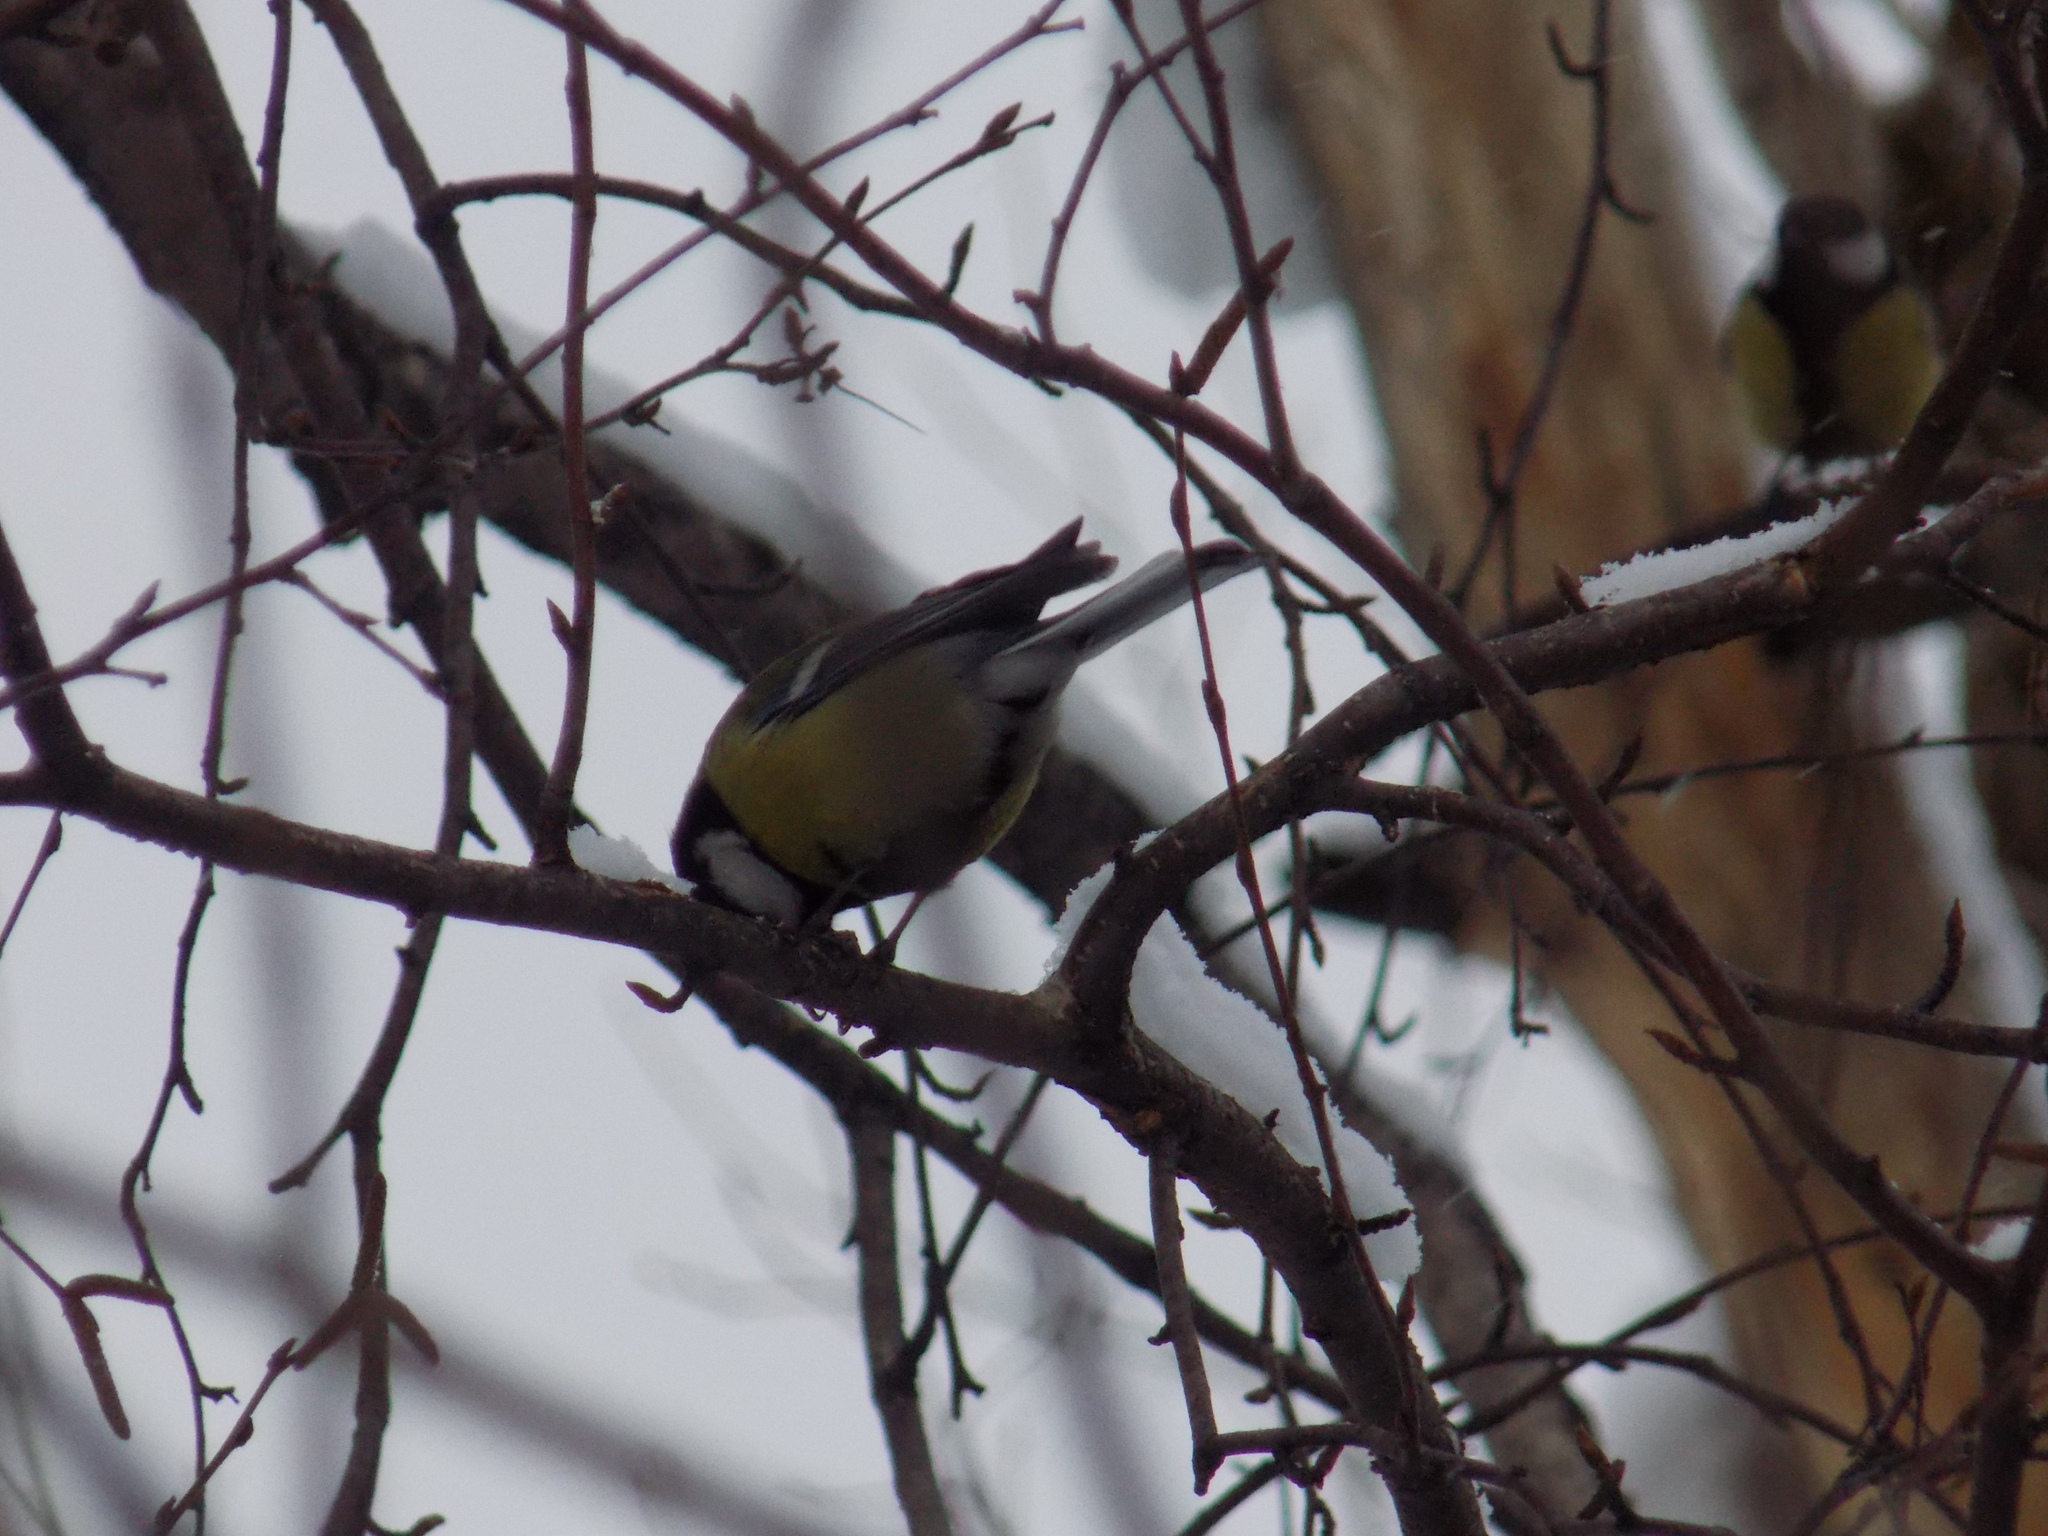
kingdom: Animalia
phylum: Chordata
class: Aves
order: Passeriformes
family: Paridae
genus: Parus
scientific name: Parus major
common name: Great tit
